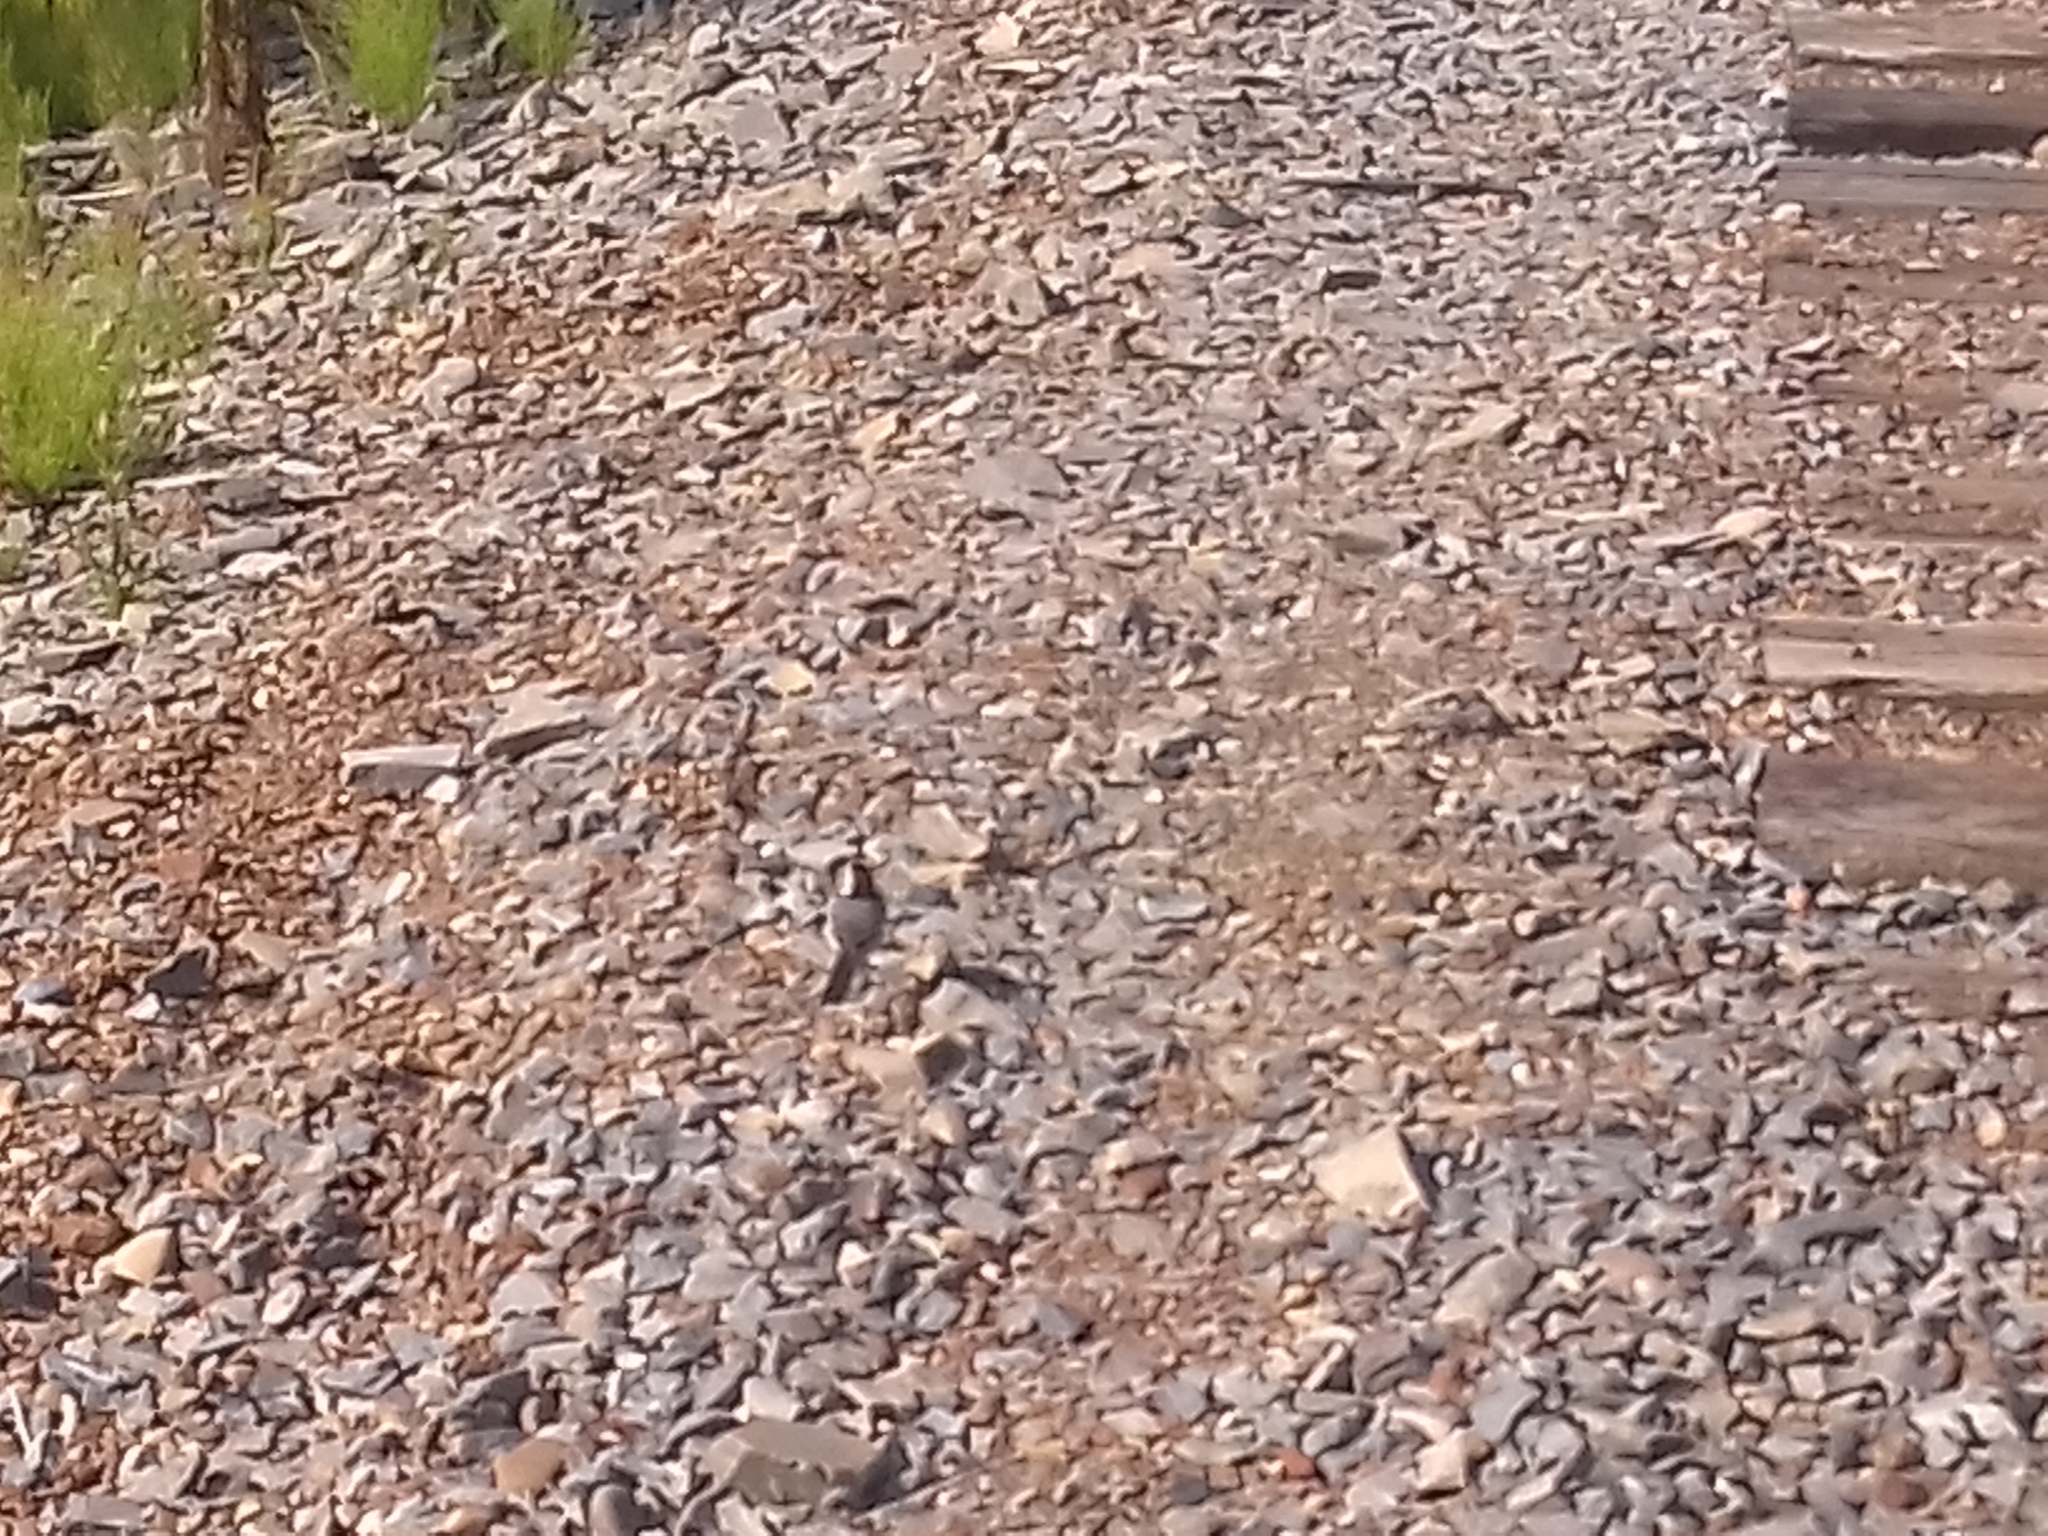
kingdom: Animalia
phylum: Chordata
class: Aves
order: Passeriformes
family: Motacillidae
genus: Motacilla
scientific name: Motacilla alba
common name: White wagtail
